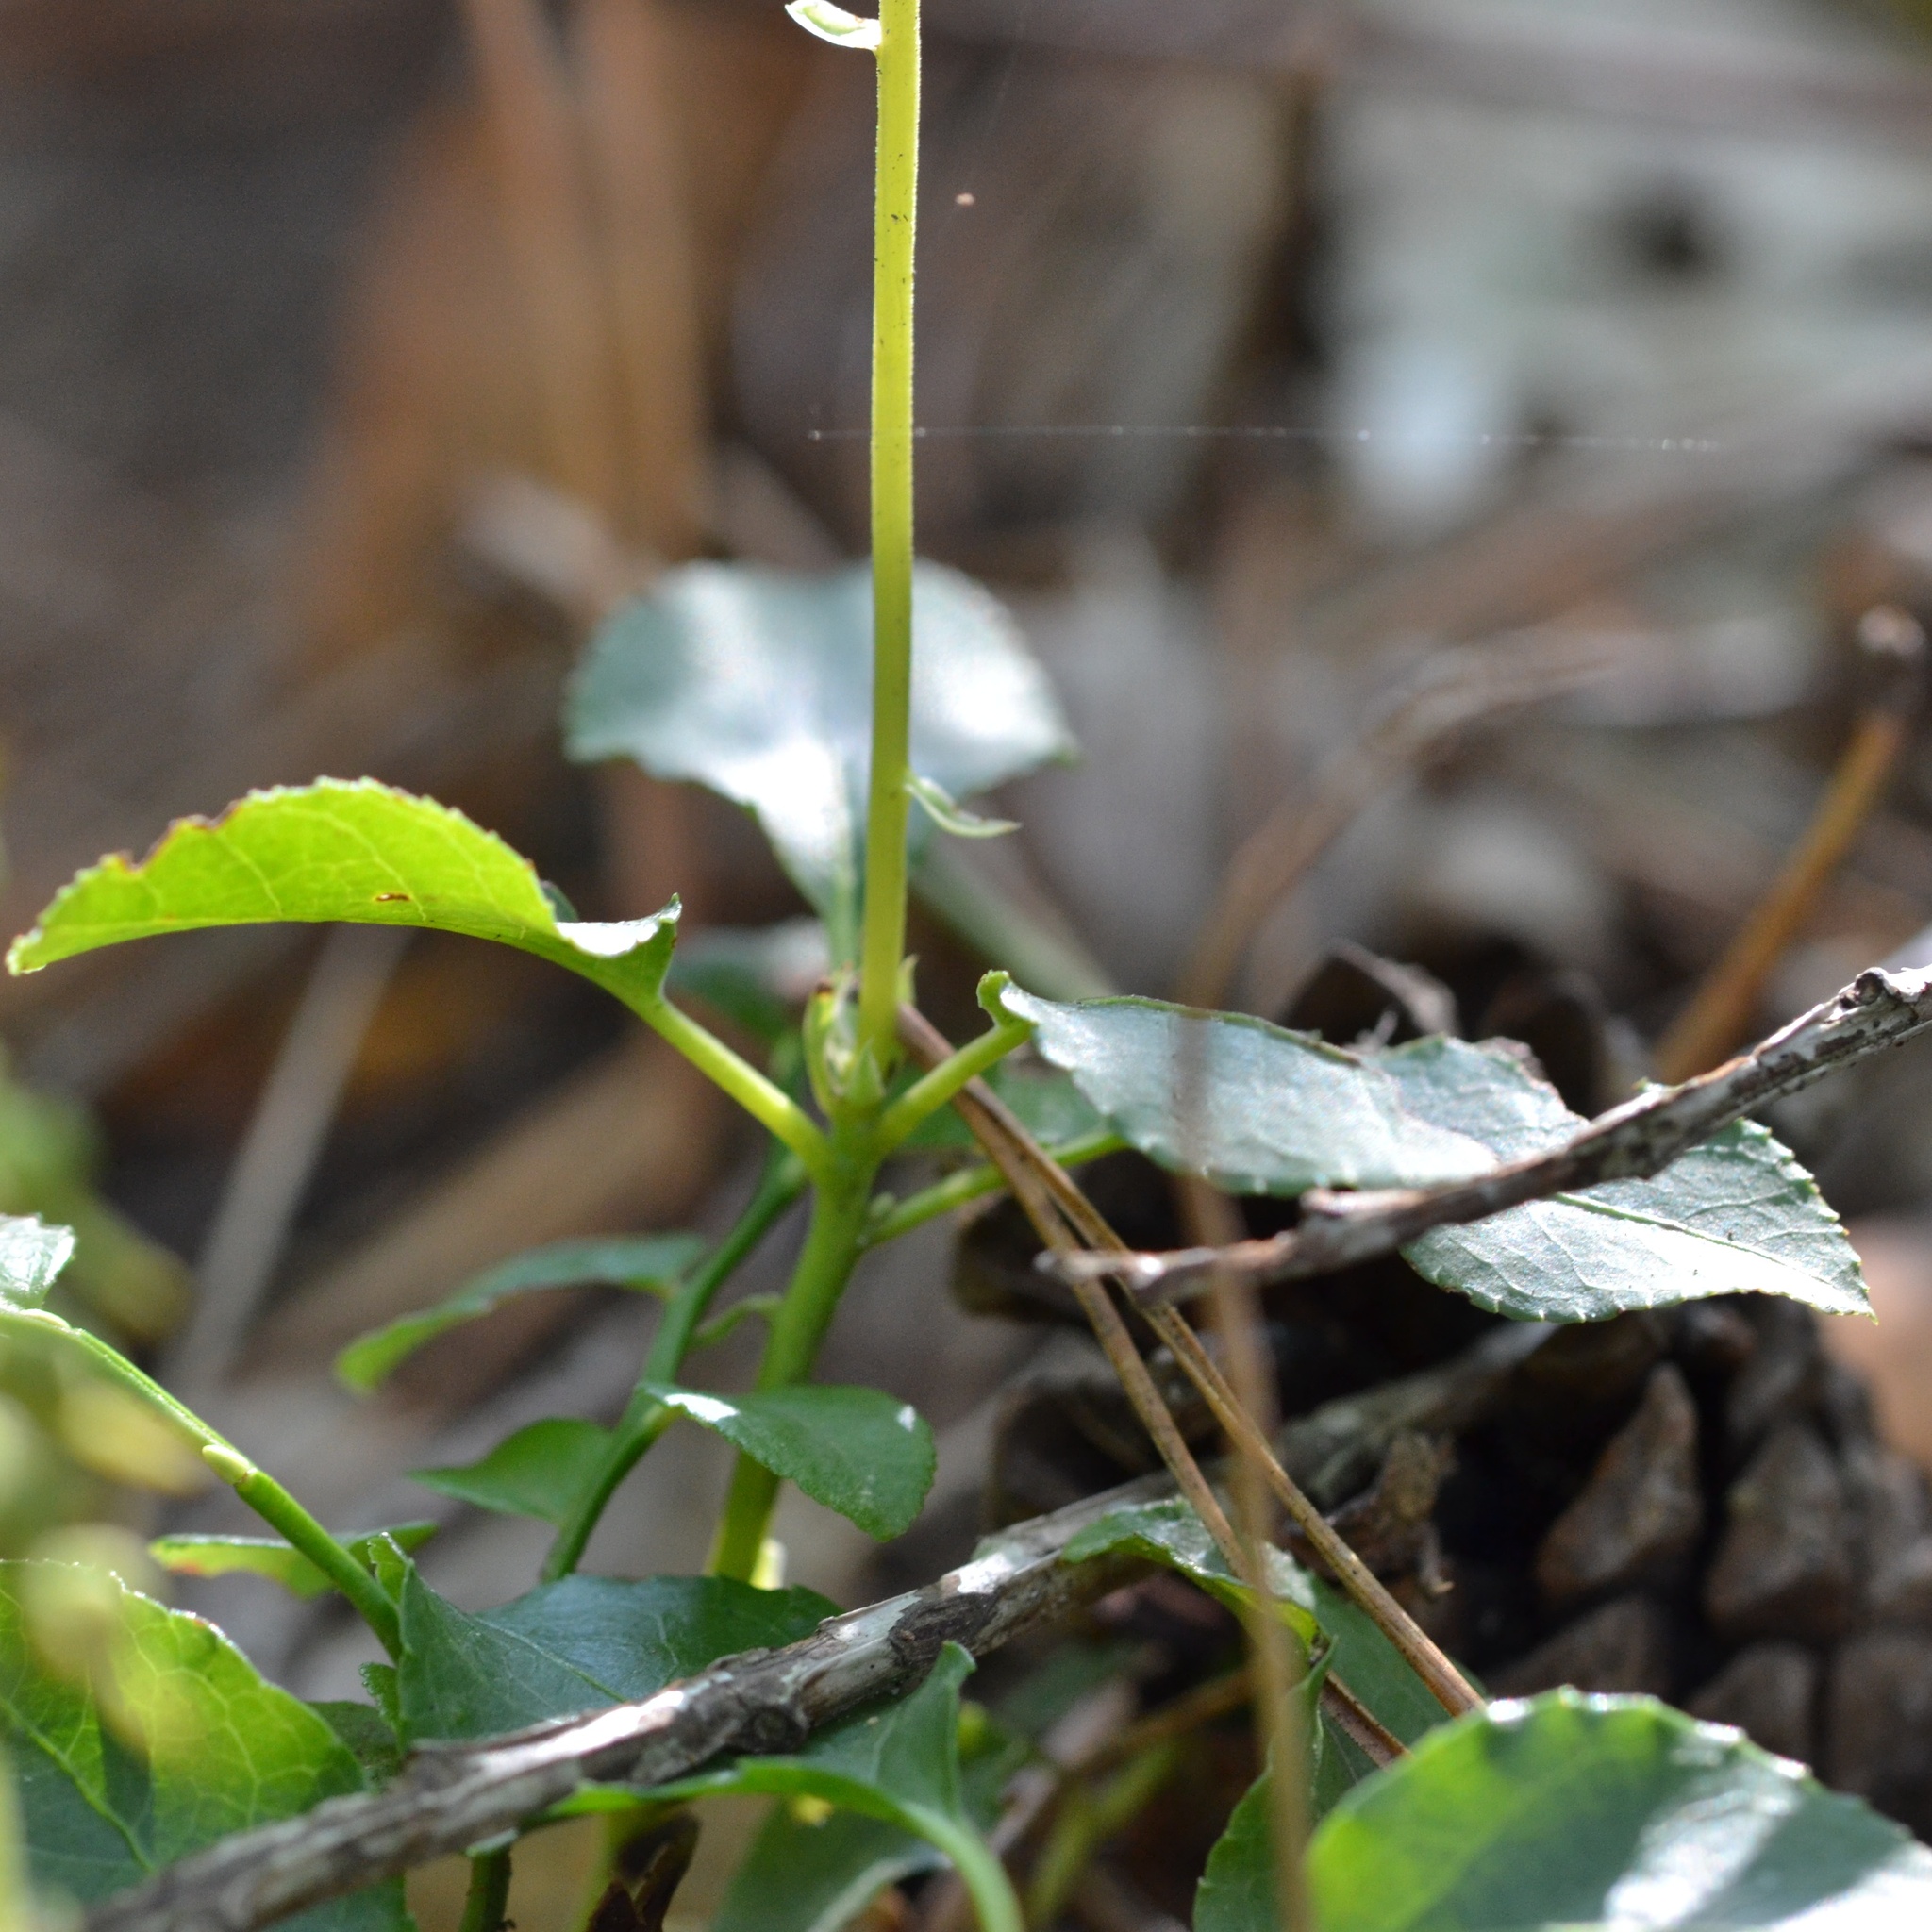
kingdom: Plantae
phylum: Tracheophyta
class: Magnoliopsida
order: Ericales
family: Ericaceae
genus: Orthilia
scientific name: Orthilia secunda
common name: One-sided orthilia
